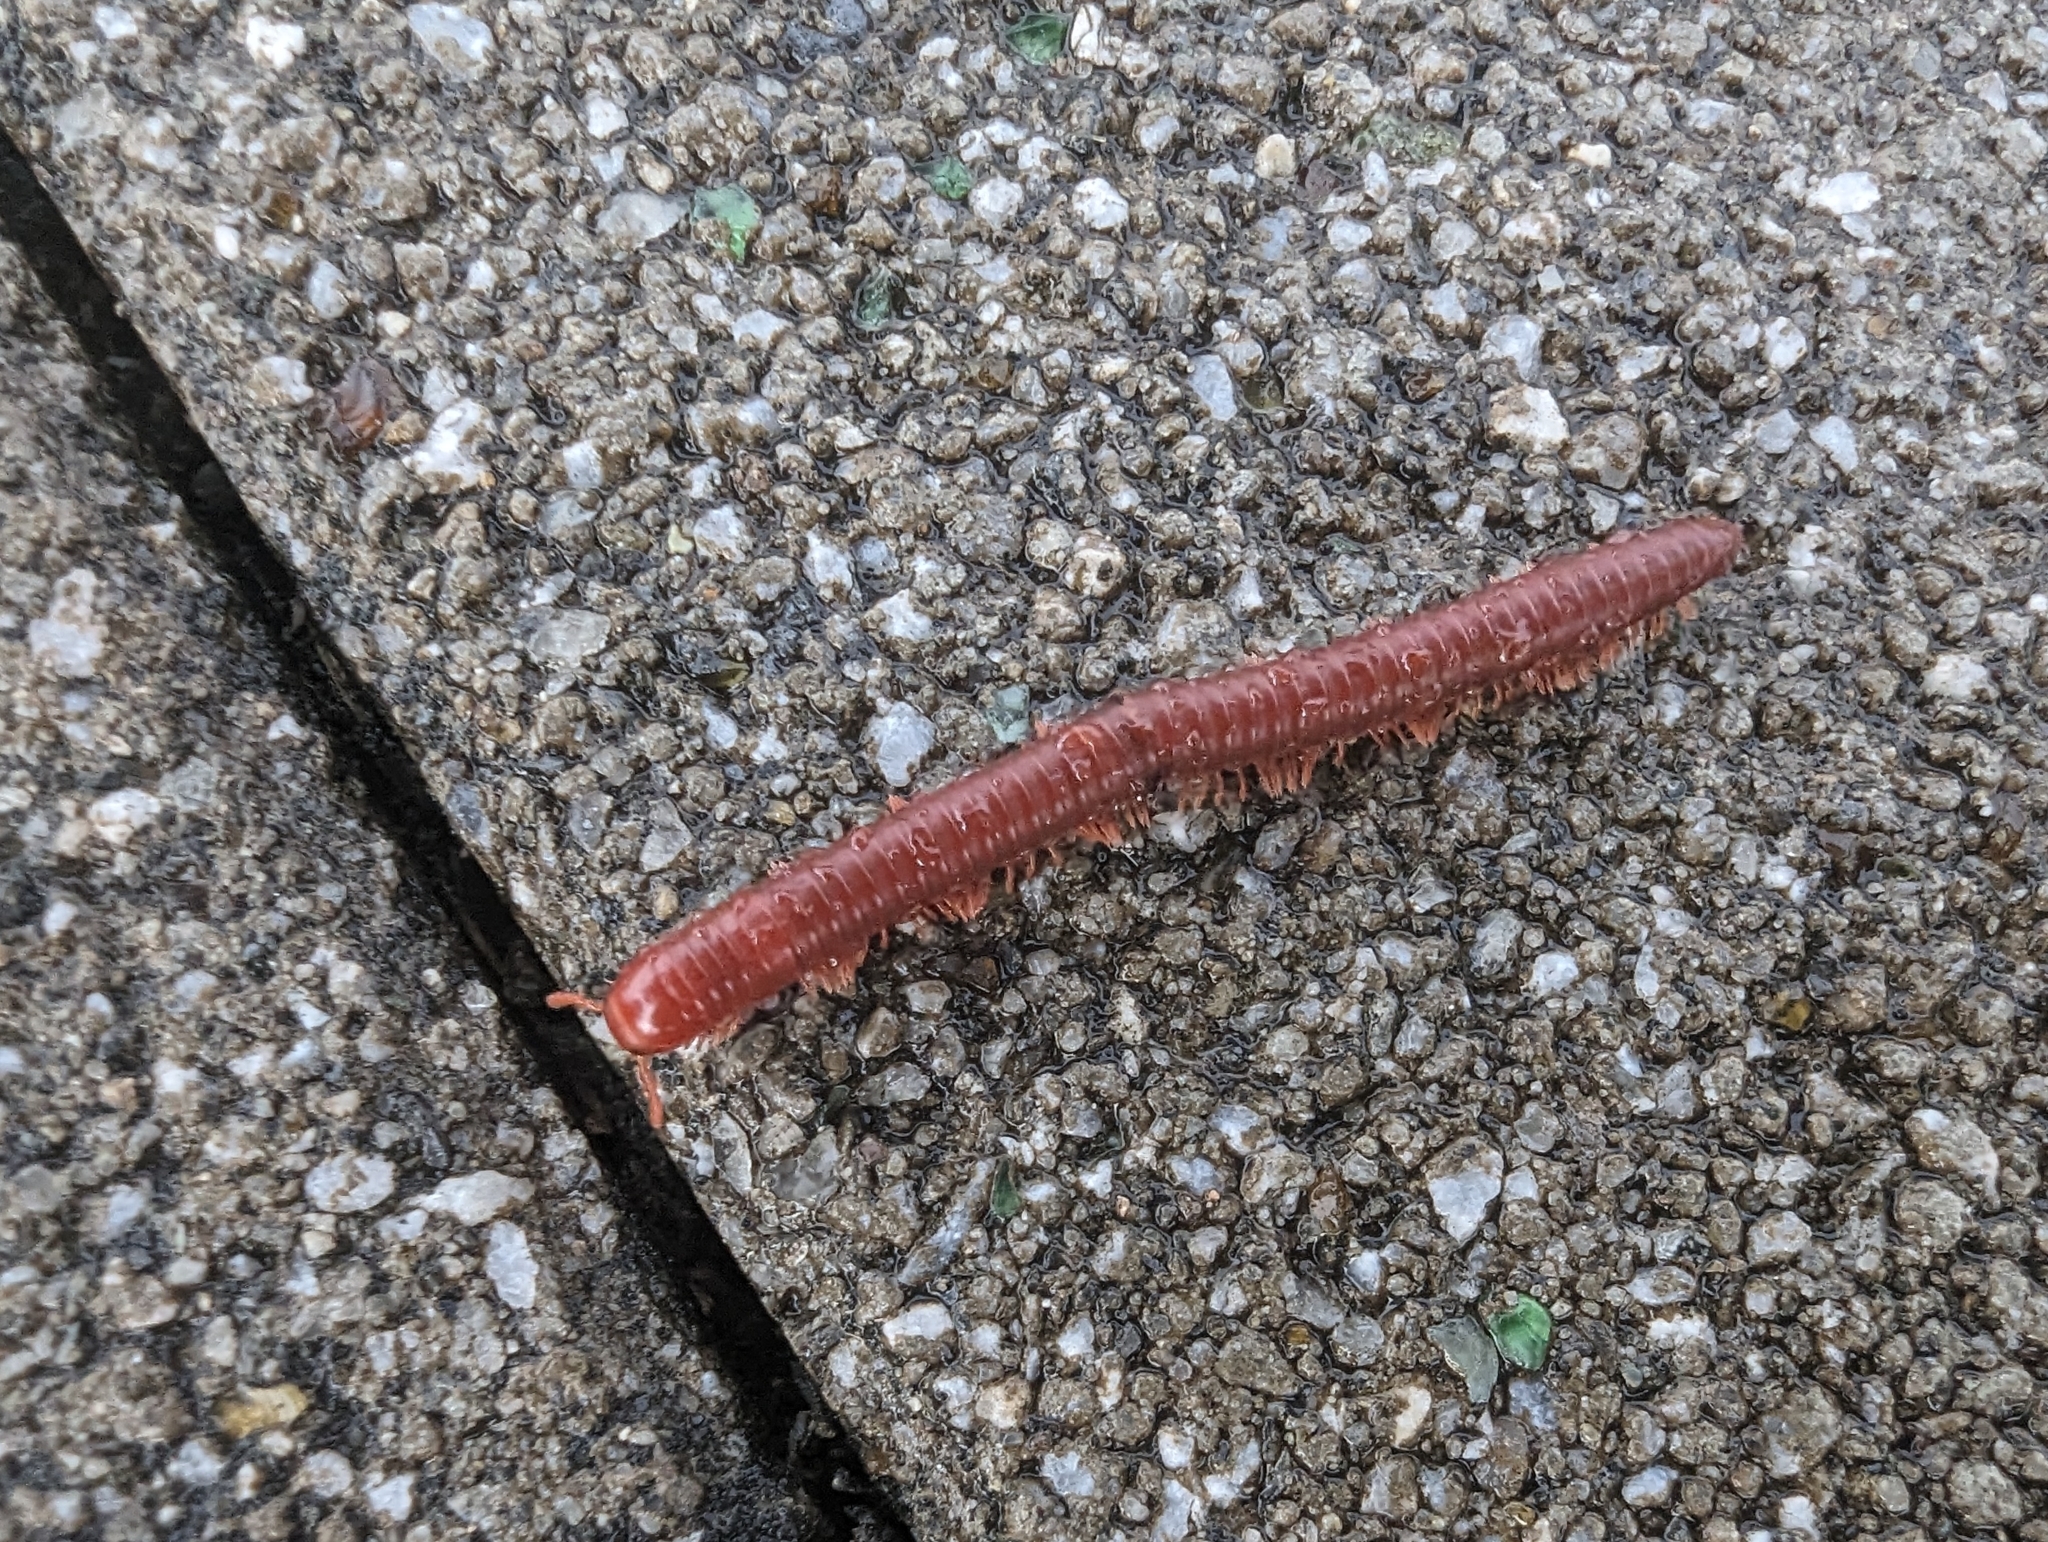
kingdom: Animalia
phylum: Arthropoda
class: Diplopoda
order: Spirobolida
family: Pachybolidae
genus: Trigoniulus
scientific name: Trigoniulus corallinus
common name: Millipede
